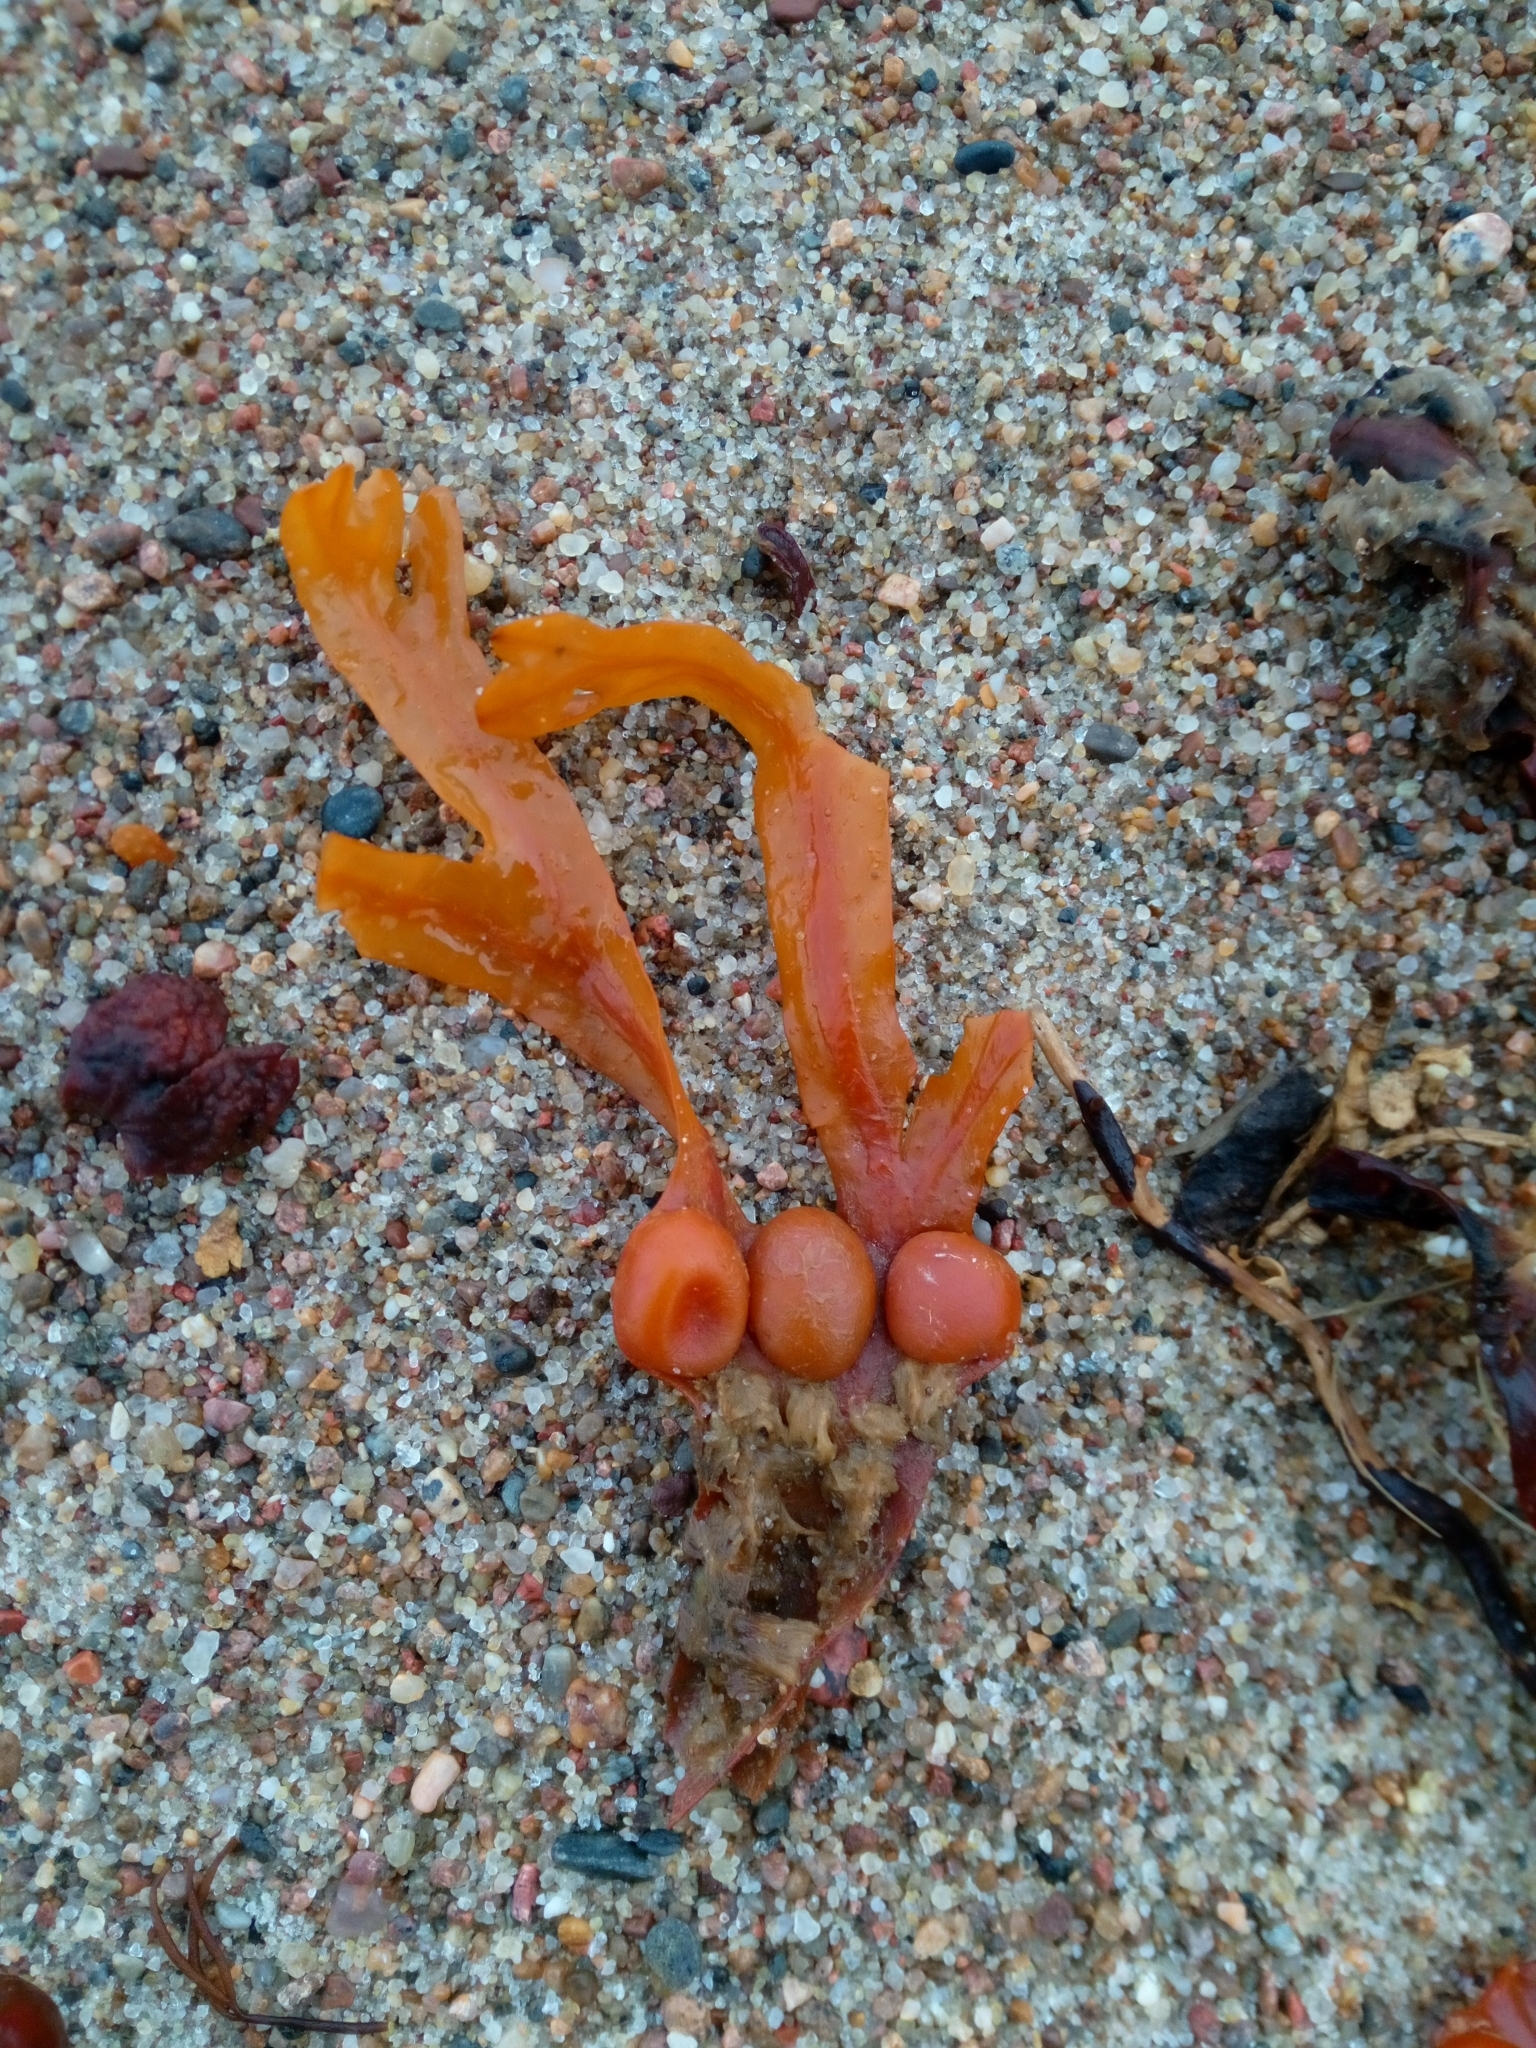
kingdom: Chromista
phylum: Ochrophyta
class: Phaeophyceae
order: Fucales
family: Fucaceae
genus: Fucus
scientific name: Fucus vesiculosus
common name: Bladder wrack
